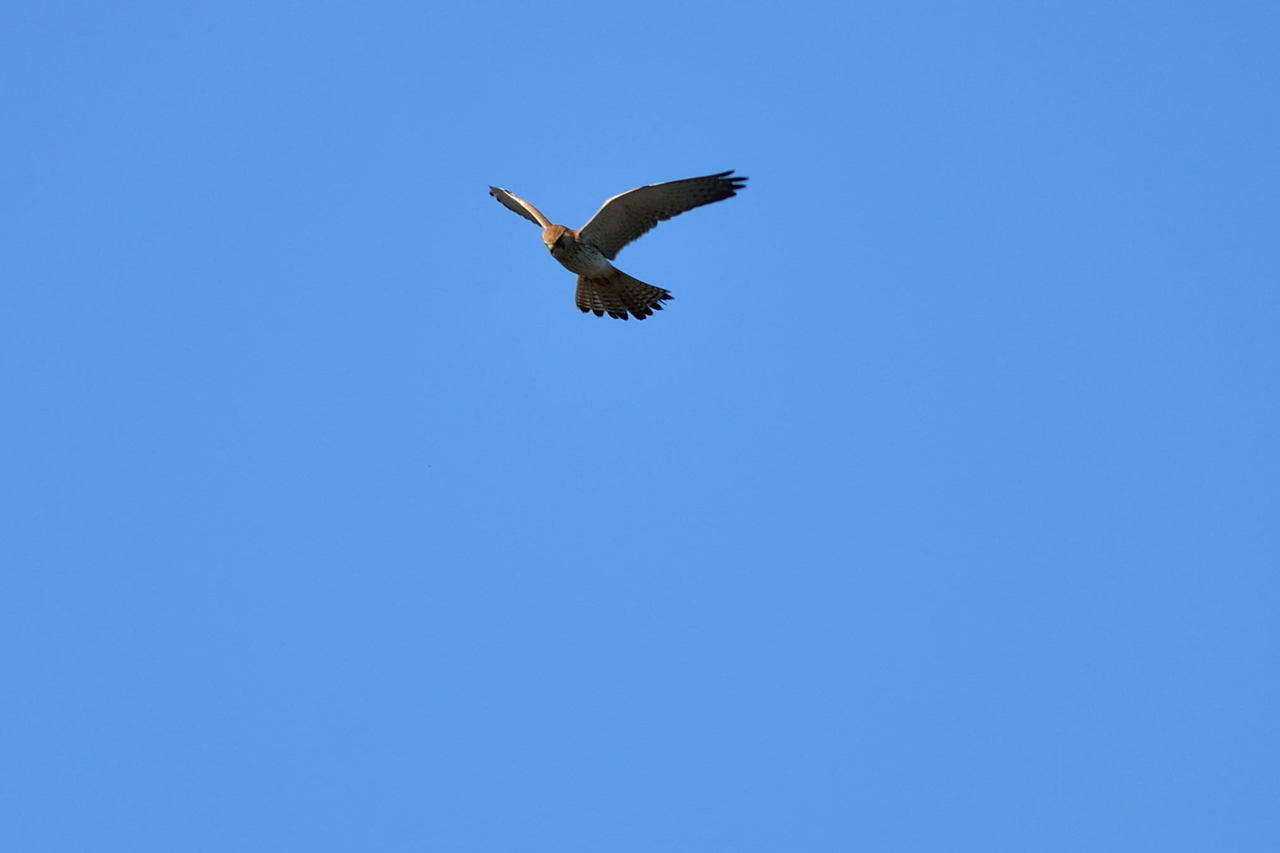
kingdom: Animalia
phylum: Chordata
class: Aves
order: Falconiformes
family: Falconidae
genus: Falco
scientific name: Falco cenchroides
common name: Nankeen kestrel
